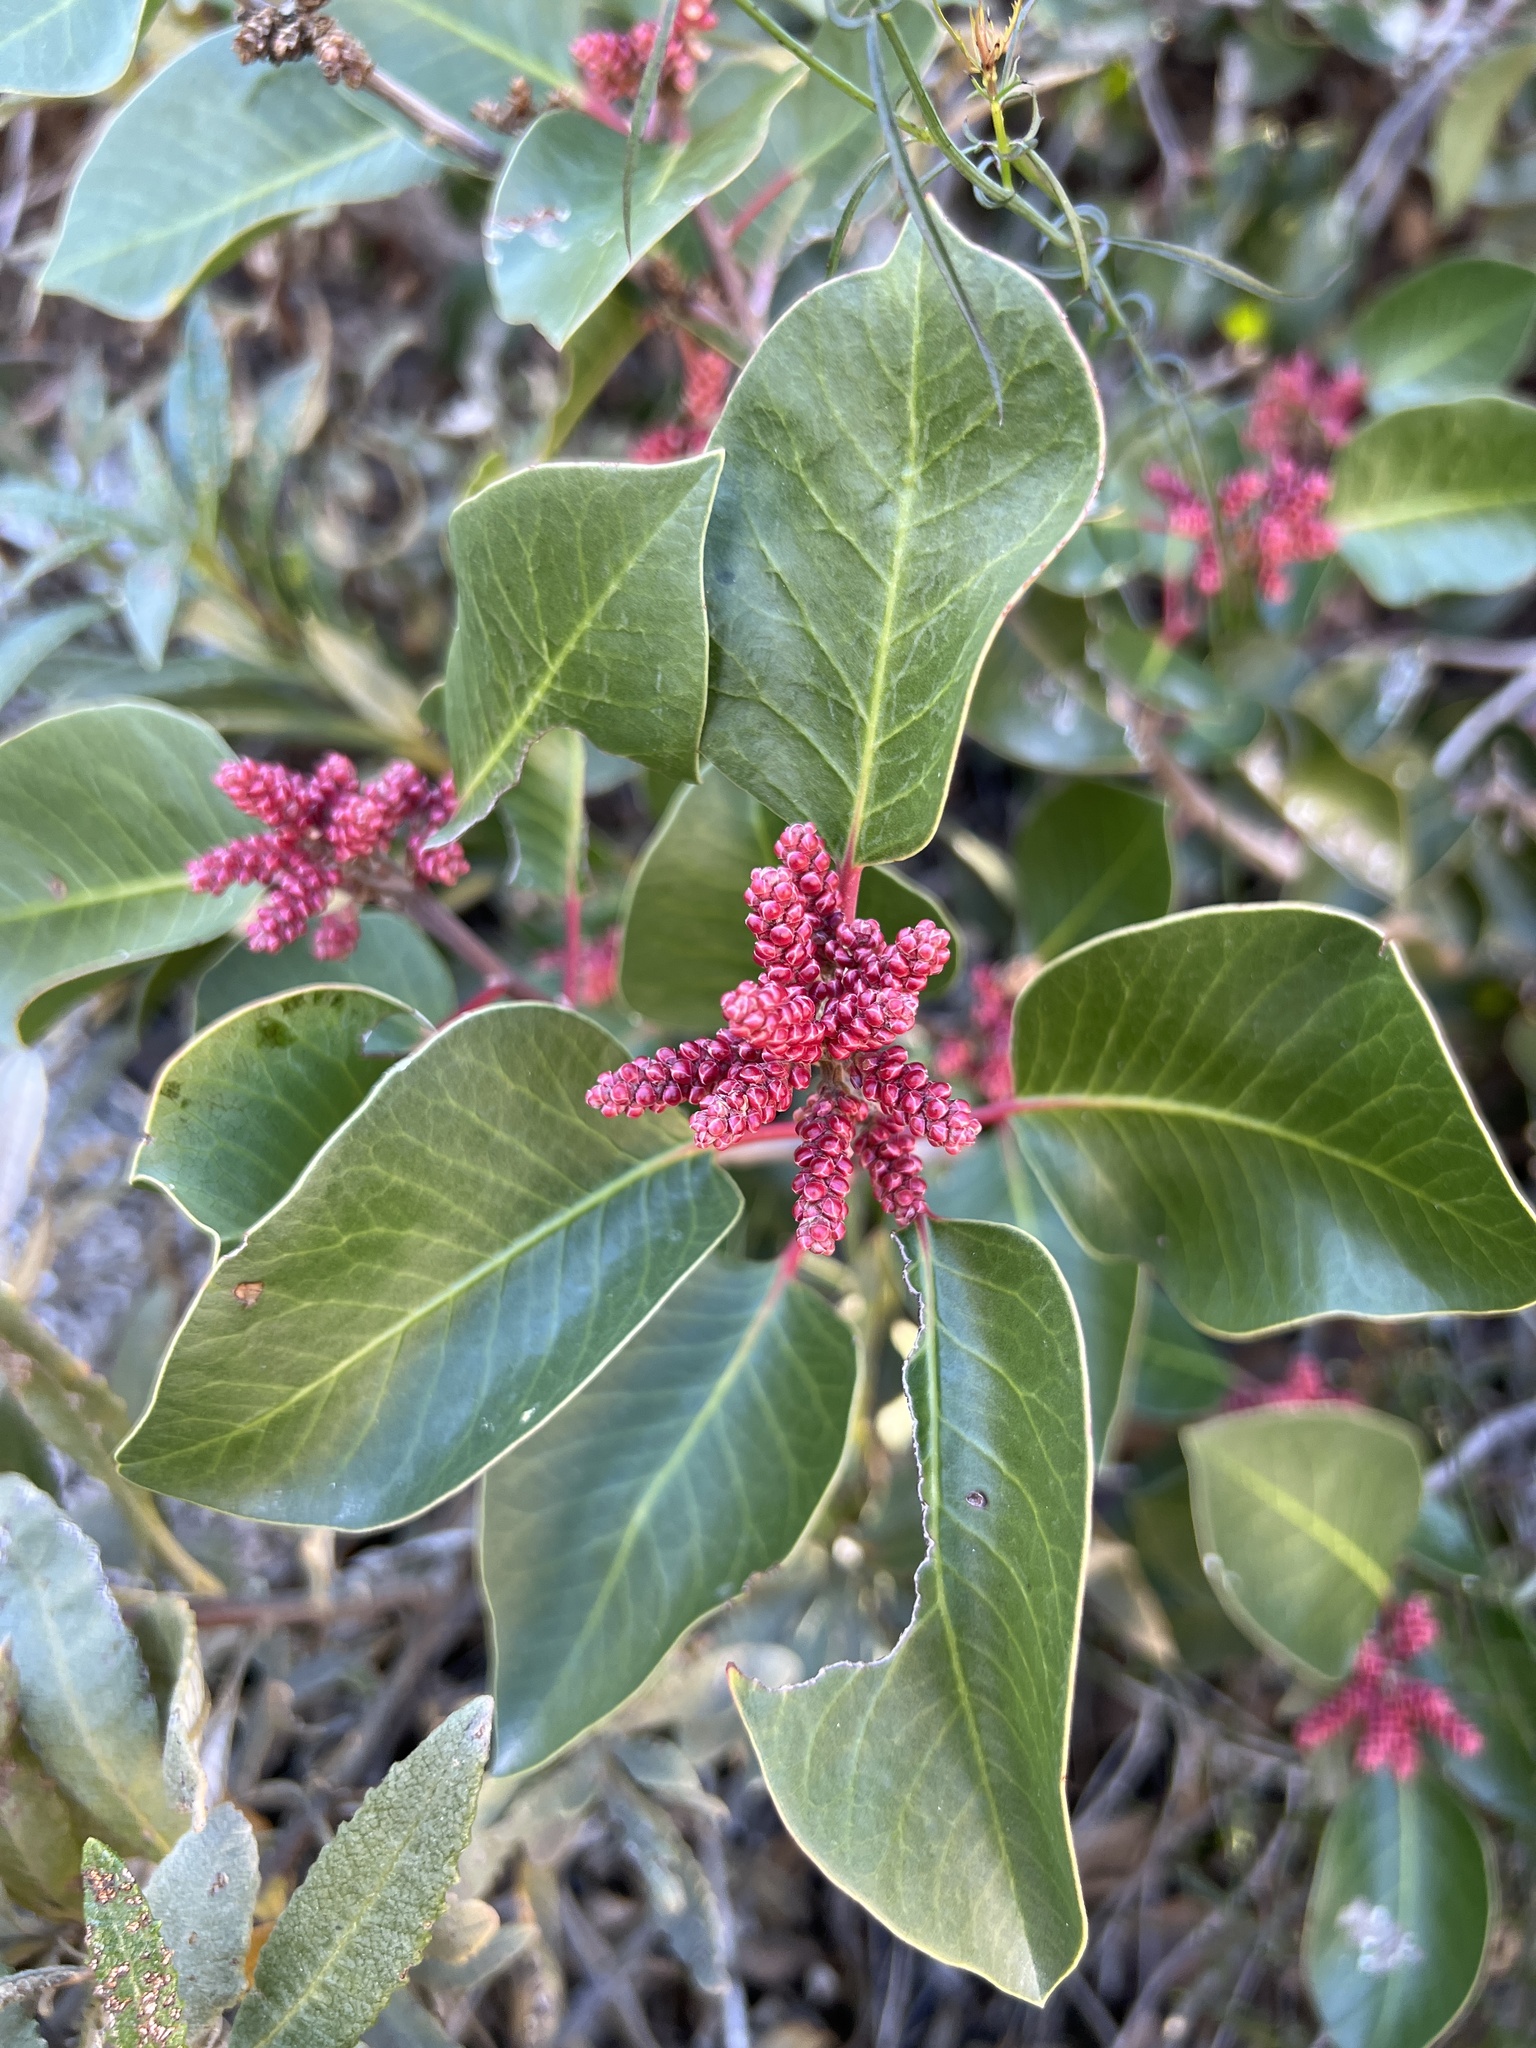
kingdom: Plantae
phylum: Tracheophyta
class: Magnoliopsida
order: Sapindales
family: Anacardiaceae
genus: Rhus
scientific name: Rhus ovata
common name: Sugar sumac
